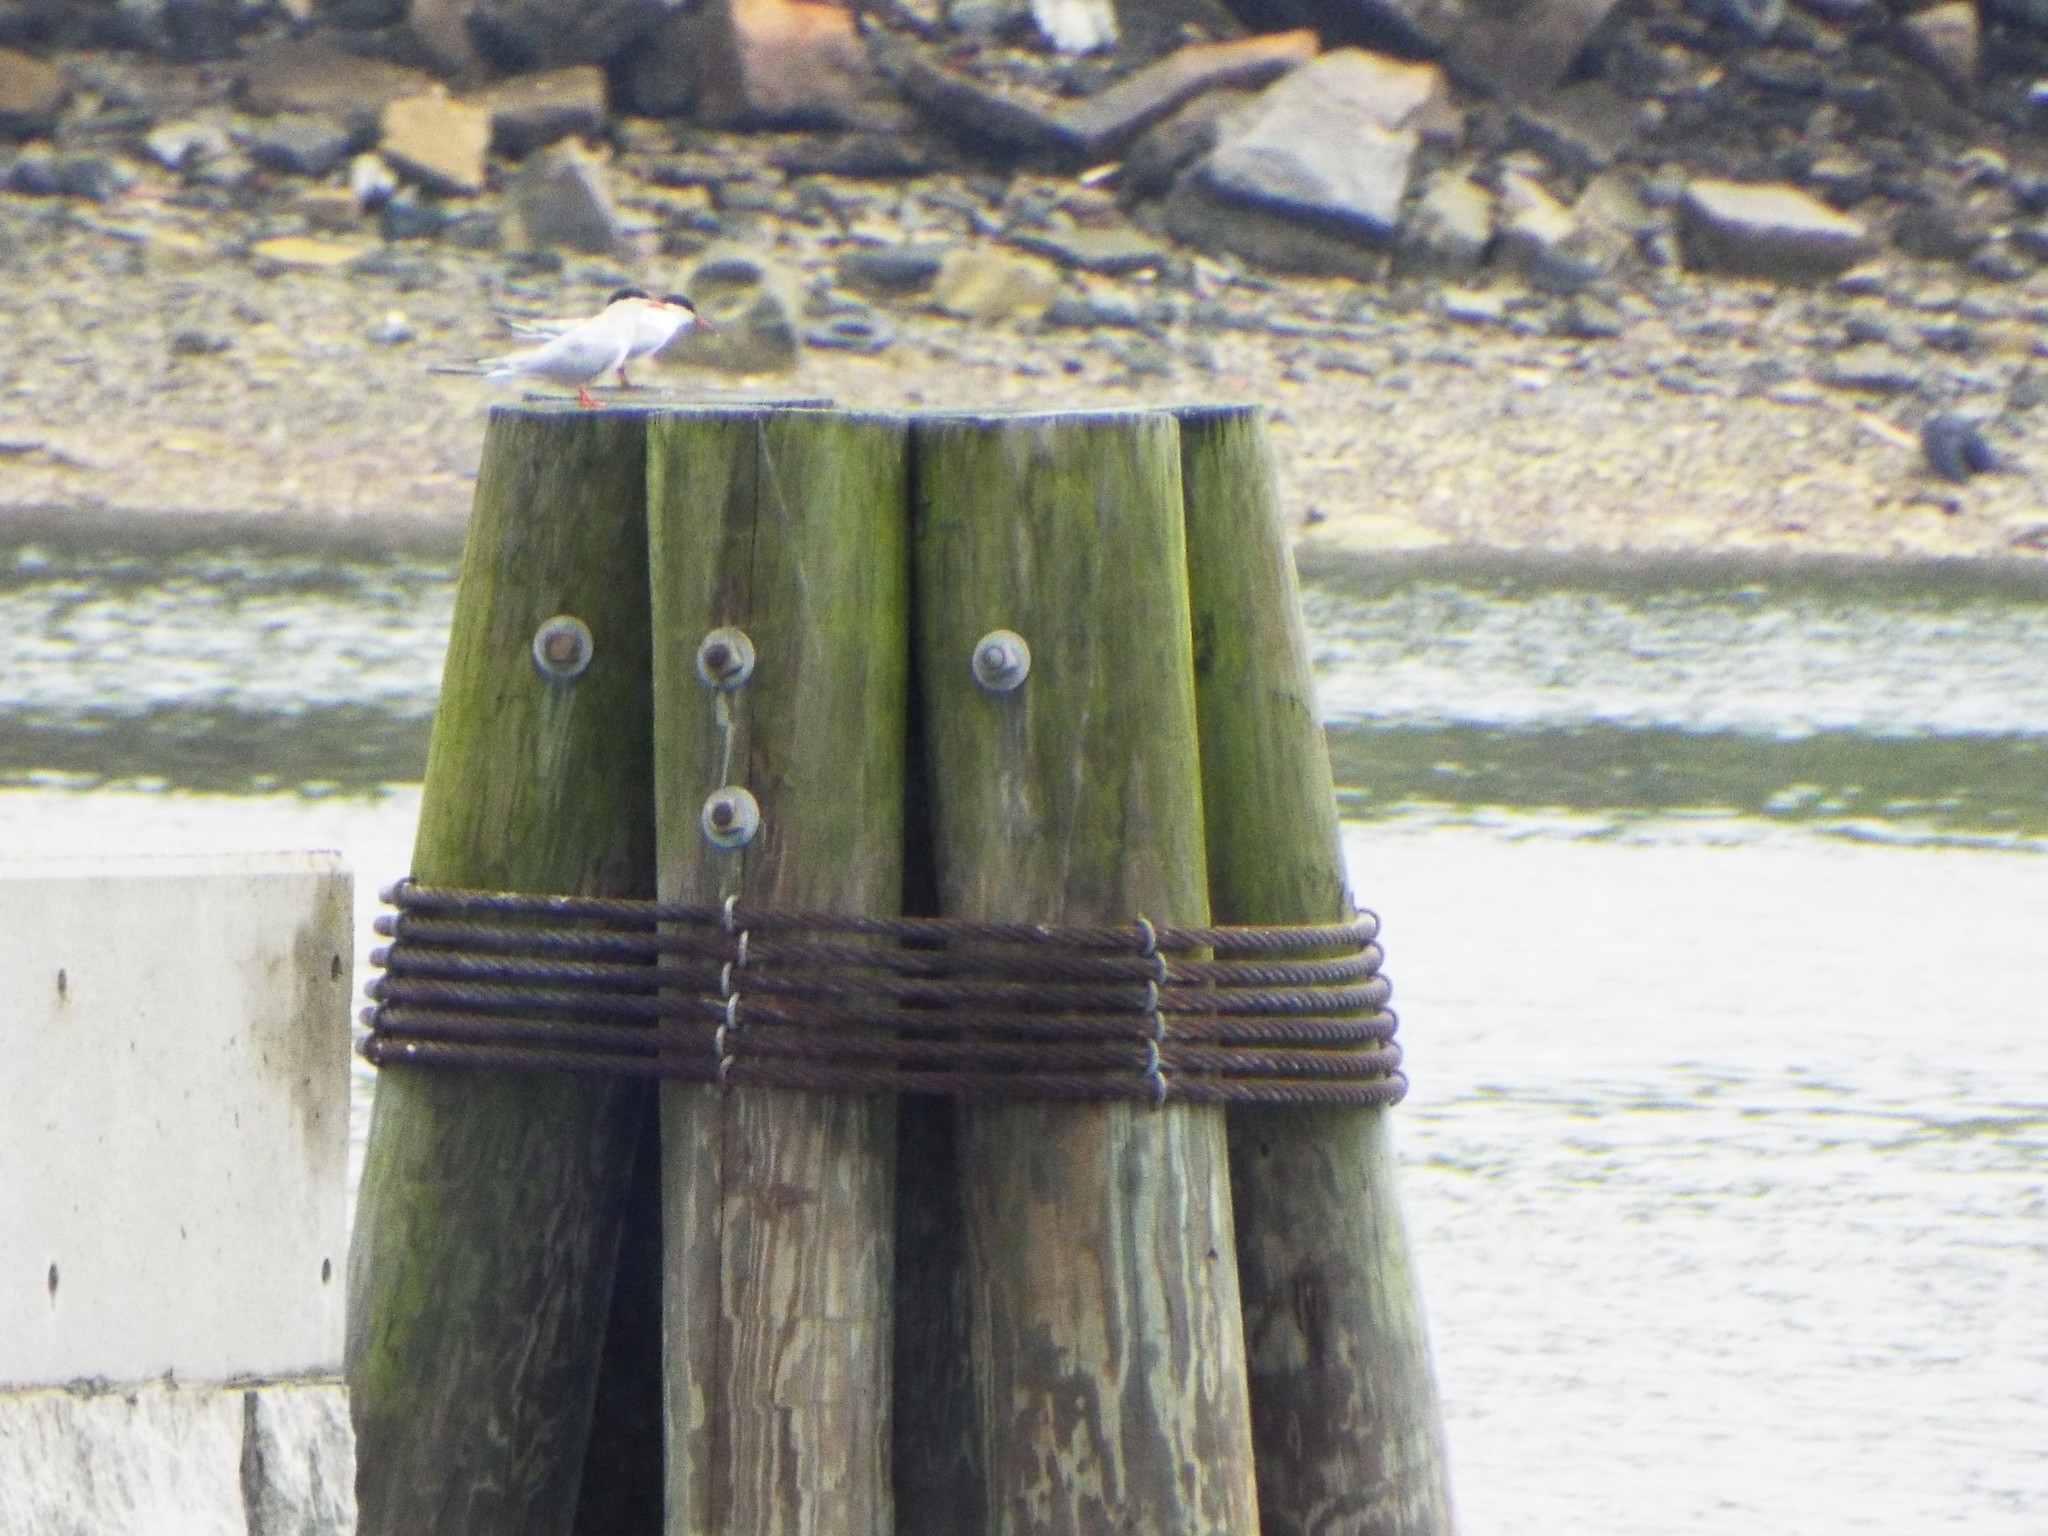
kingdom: Animalia
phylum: Chordata
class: Aves
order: Charadriiformes
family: Laridae
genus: Sterna
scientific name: Sterna hirundo
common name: Common tern
